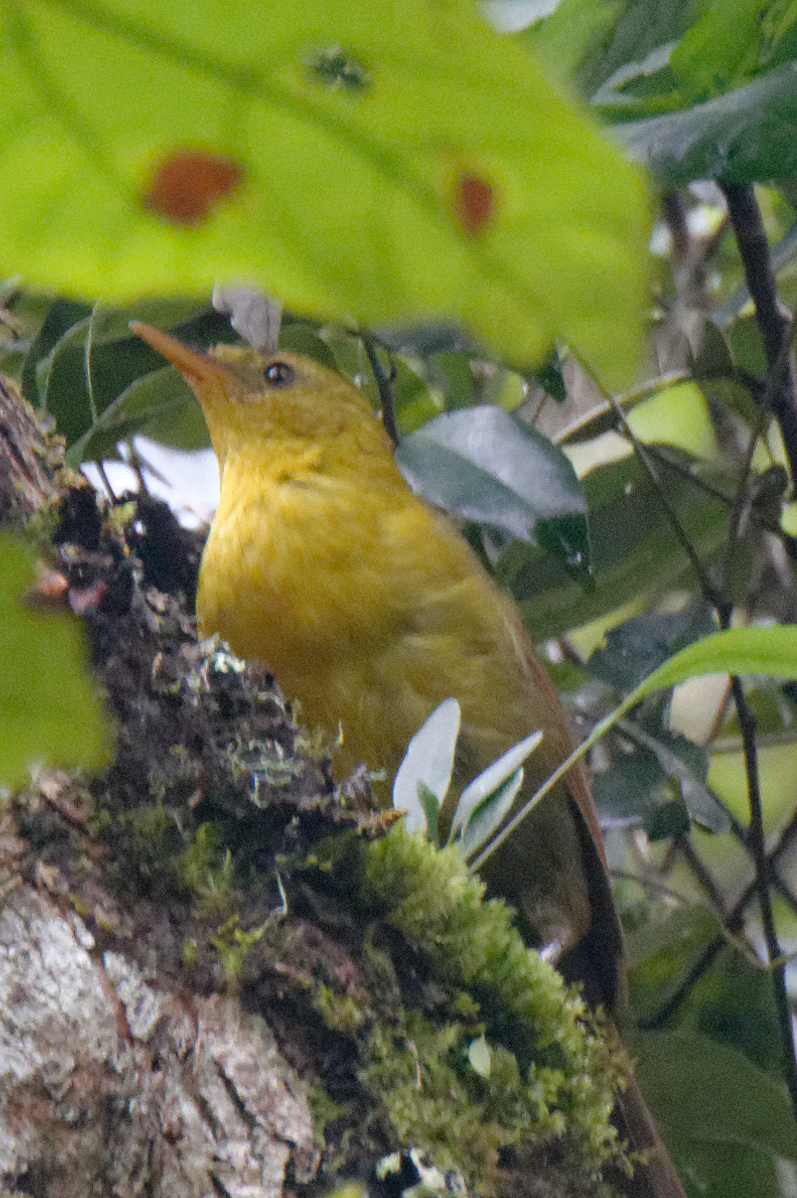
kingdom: Animalia
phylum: Chordata
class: Aves
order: Passeriformes
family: Pycnonotidae
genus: Malia
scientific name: Malia grata
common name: Malia
